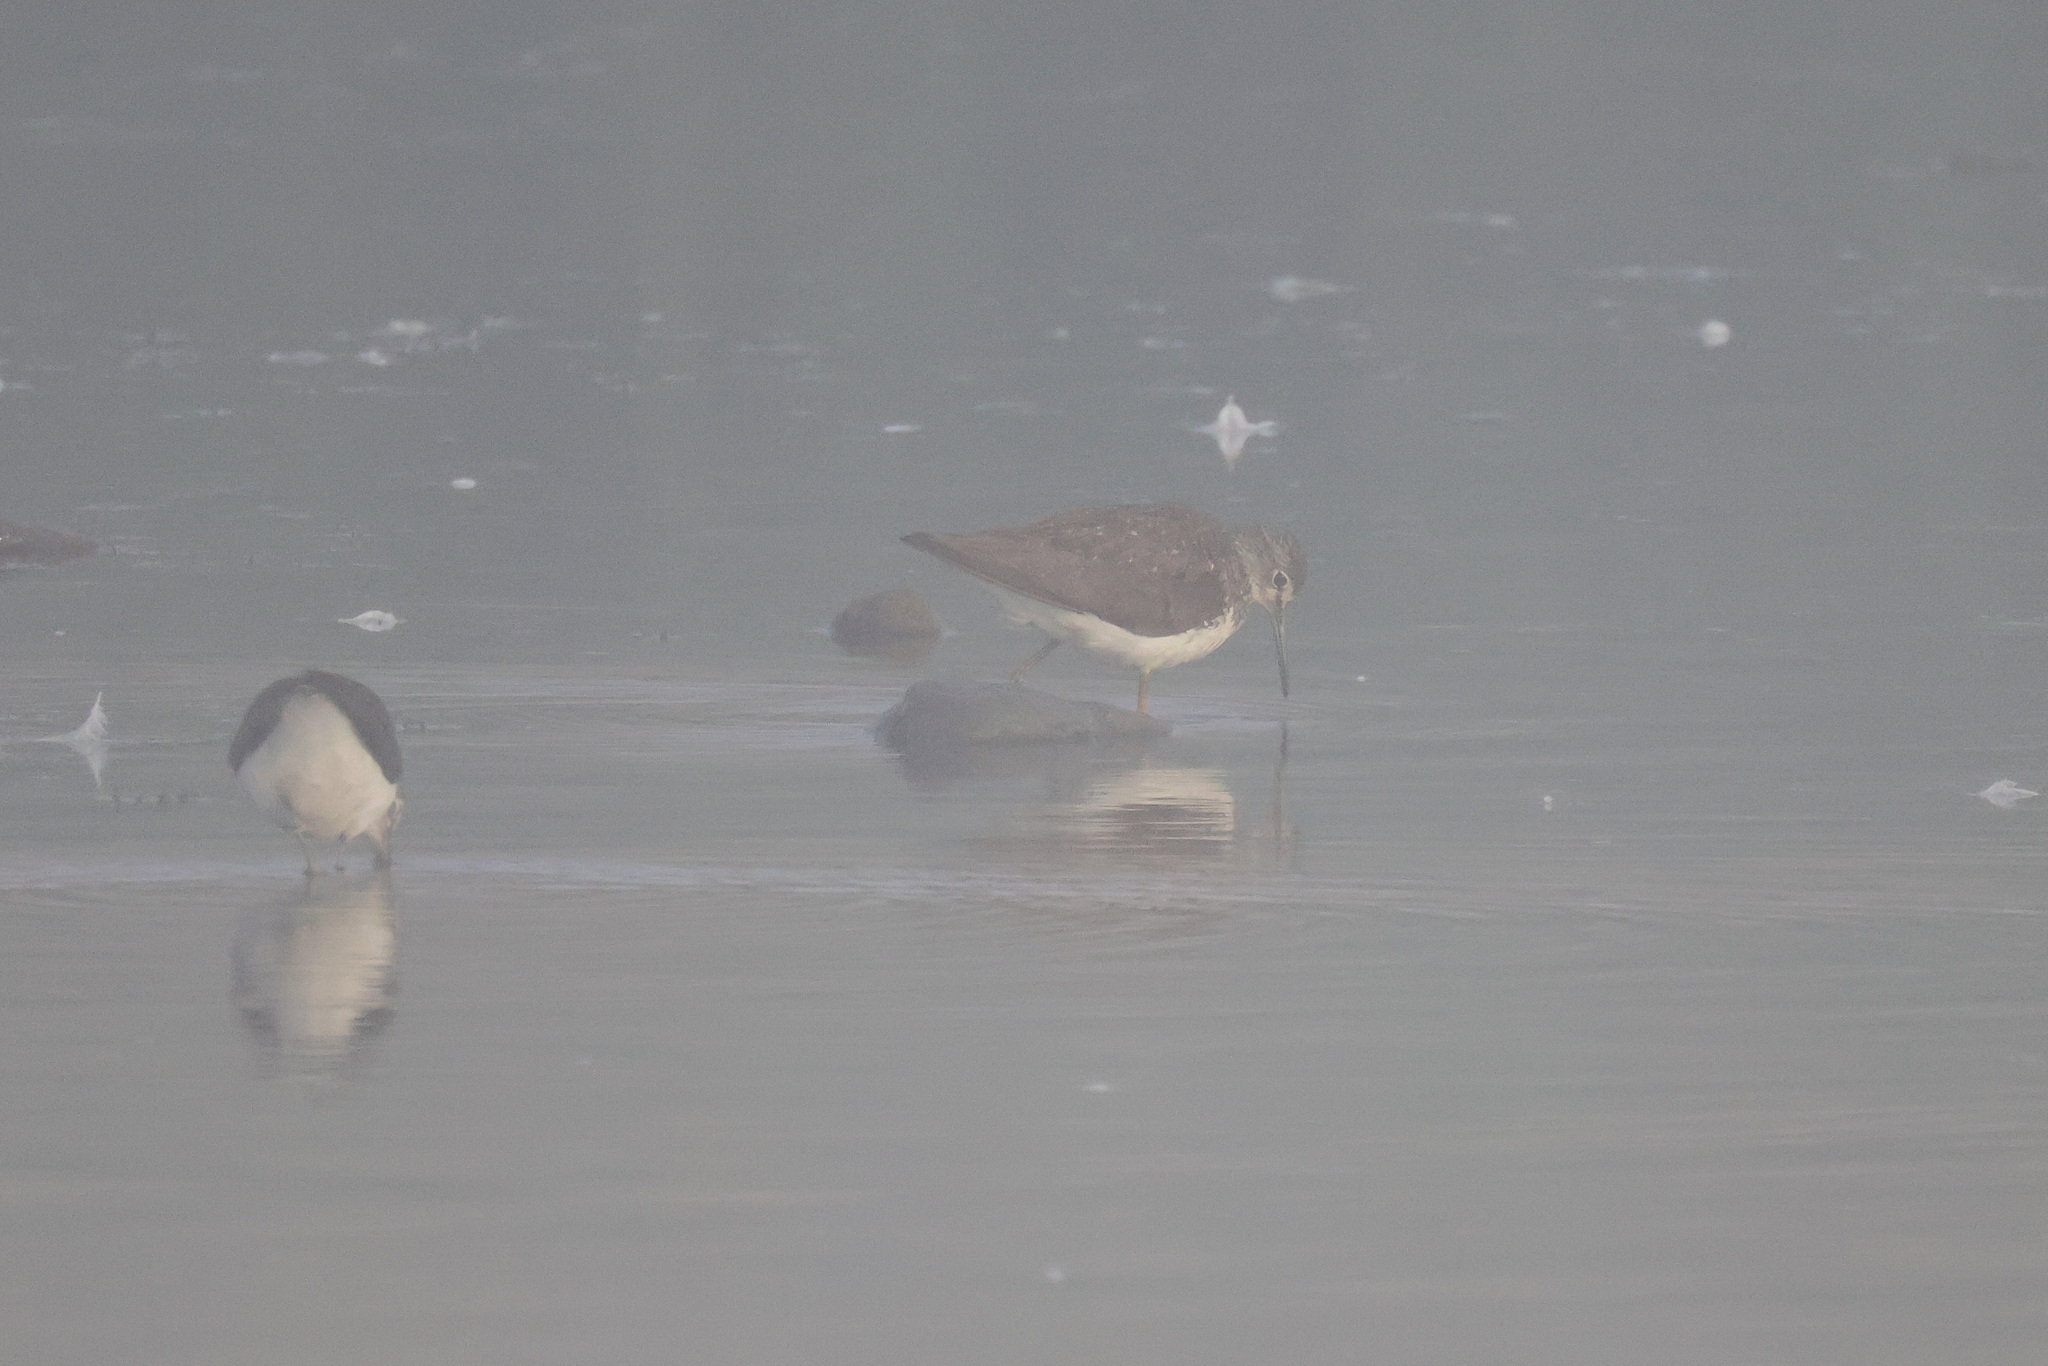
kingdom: Animalia
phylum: Chordata
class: Aves
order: Charadriiformes
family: Scolopacidae
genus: Tringa
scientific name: Tringa ochropus
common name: Green sandpiper
